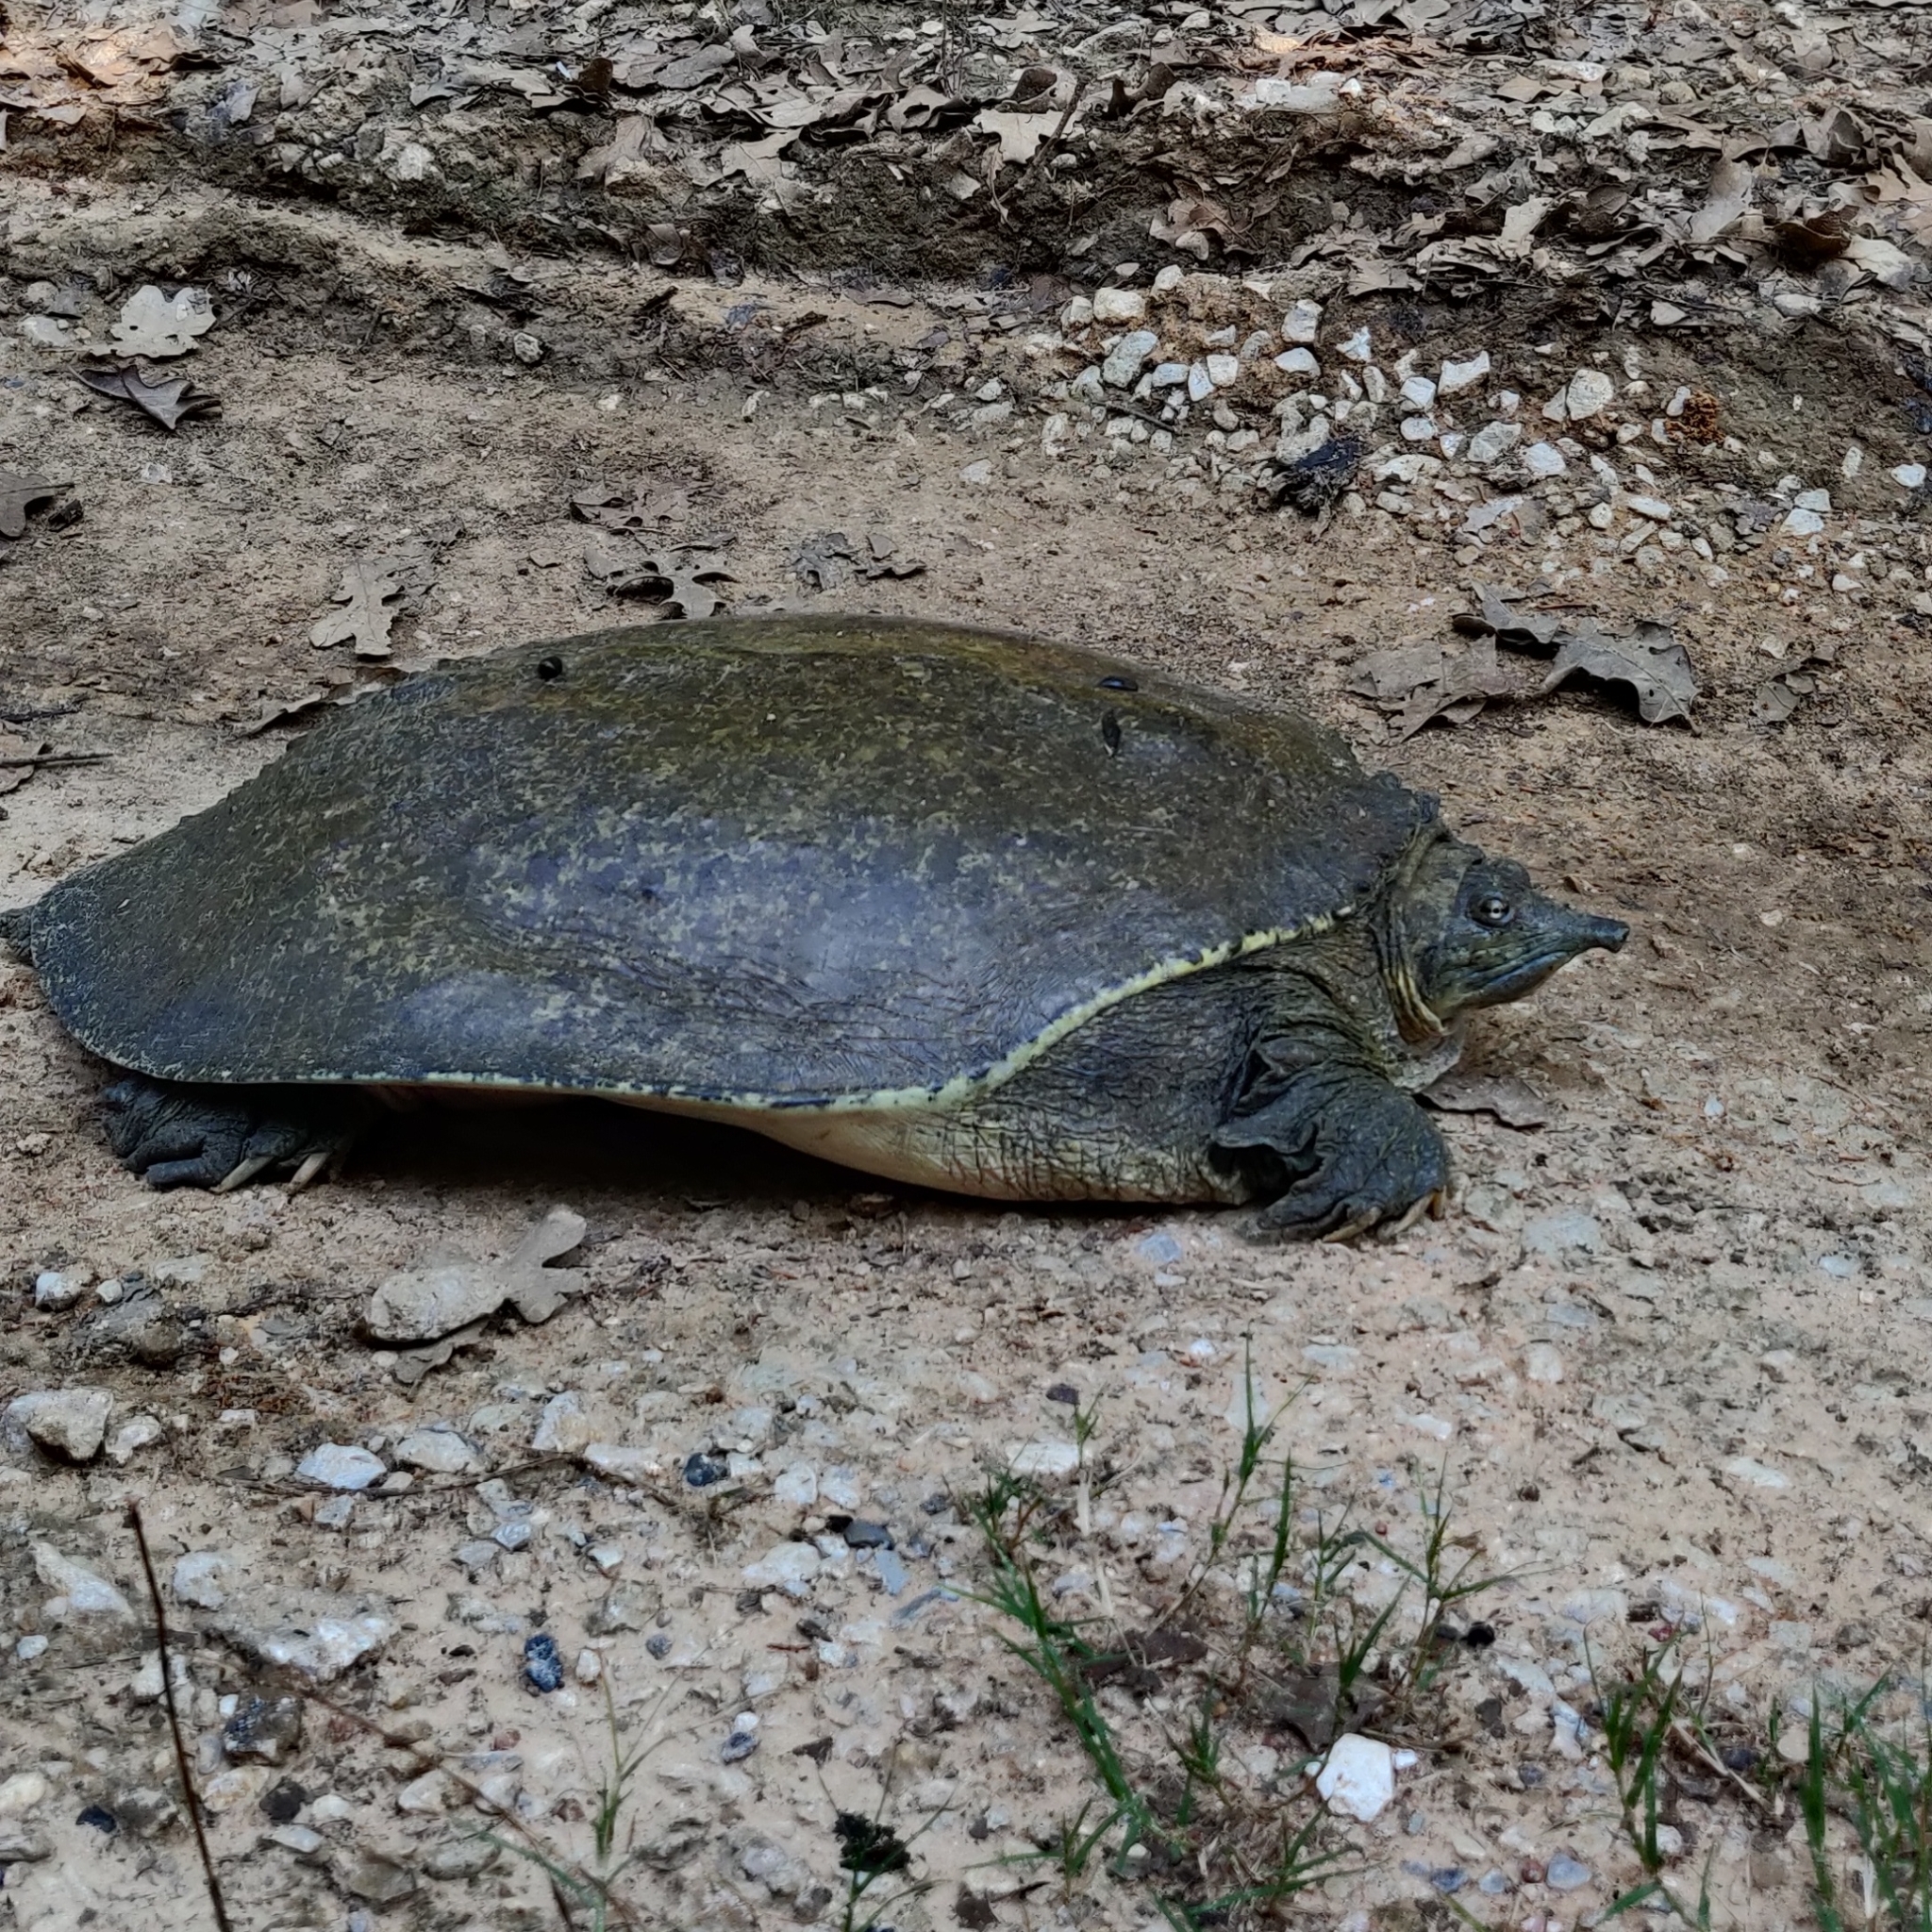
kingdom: Animalia
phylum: Chordata
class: Testudines
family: Trionychidae
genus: Apalone
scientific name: Apalone spinifera
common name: Spiny softshell turtle
